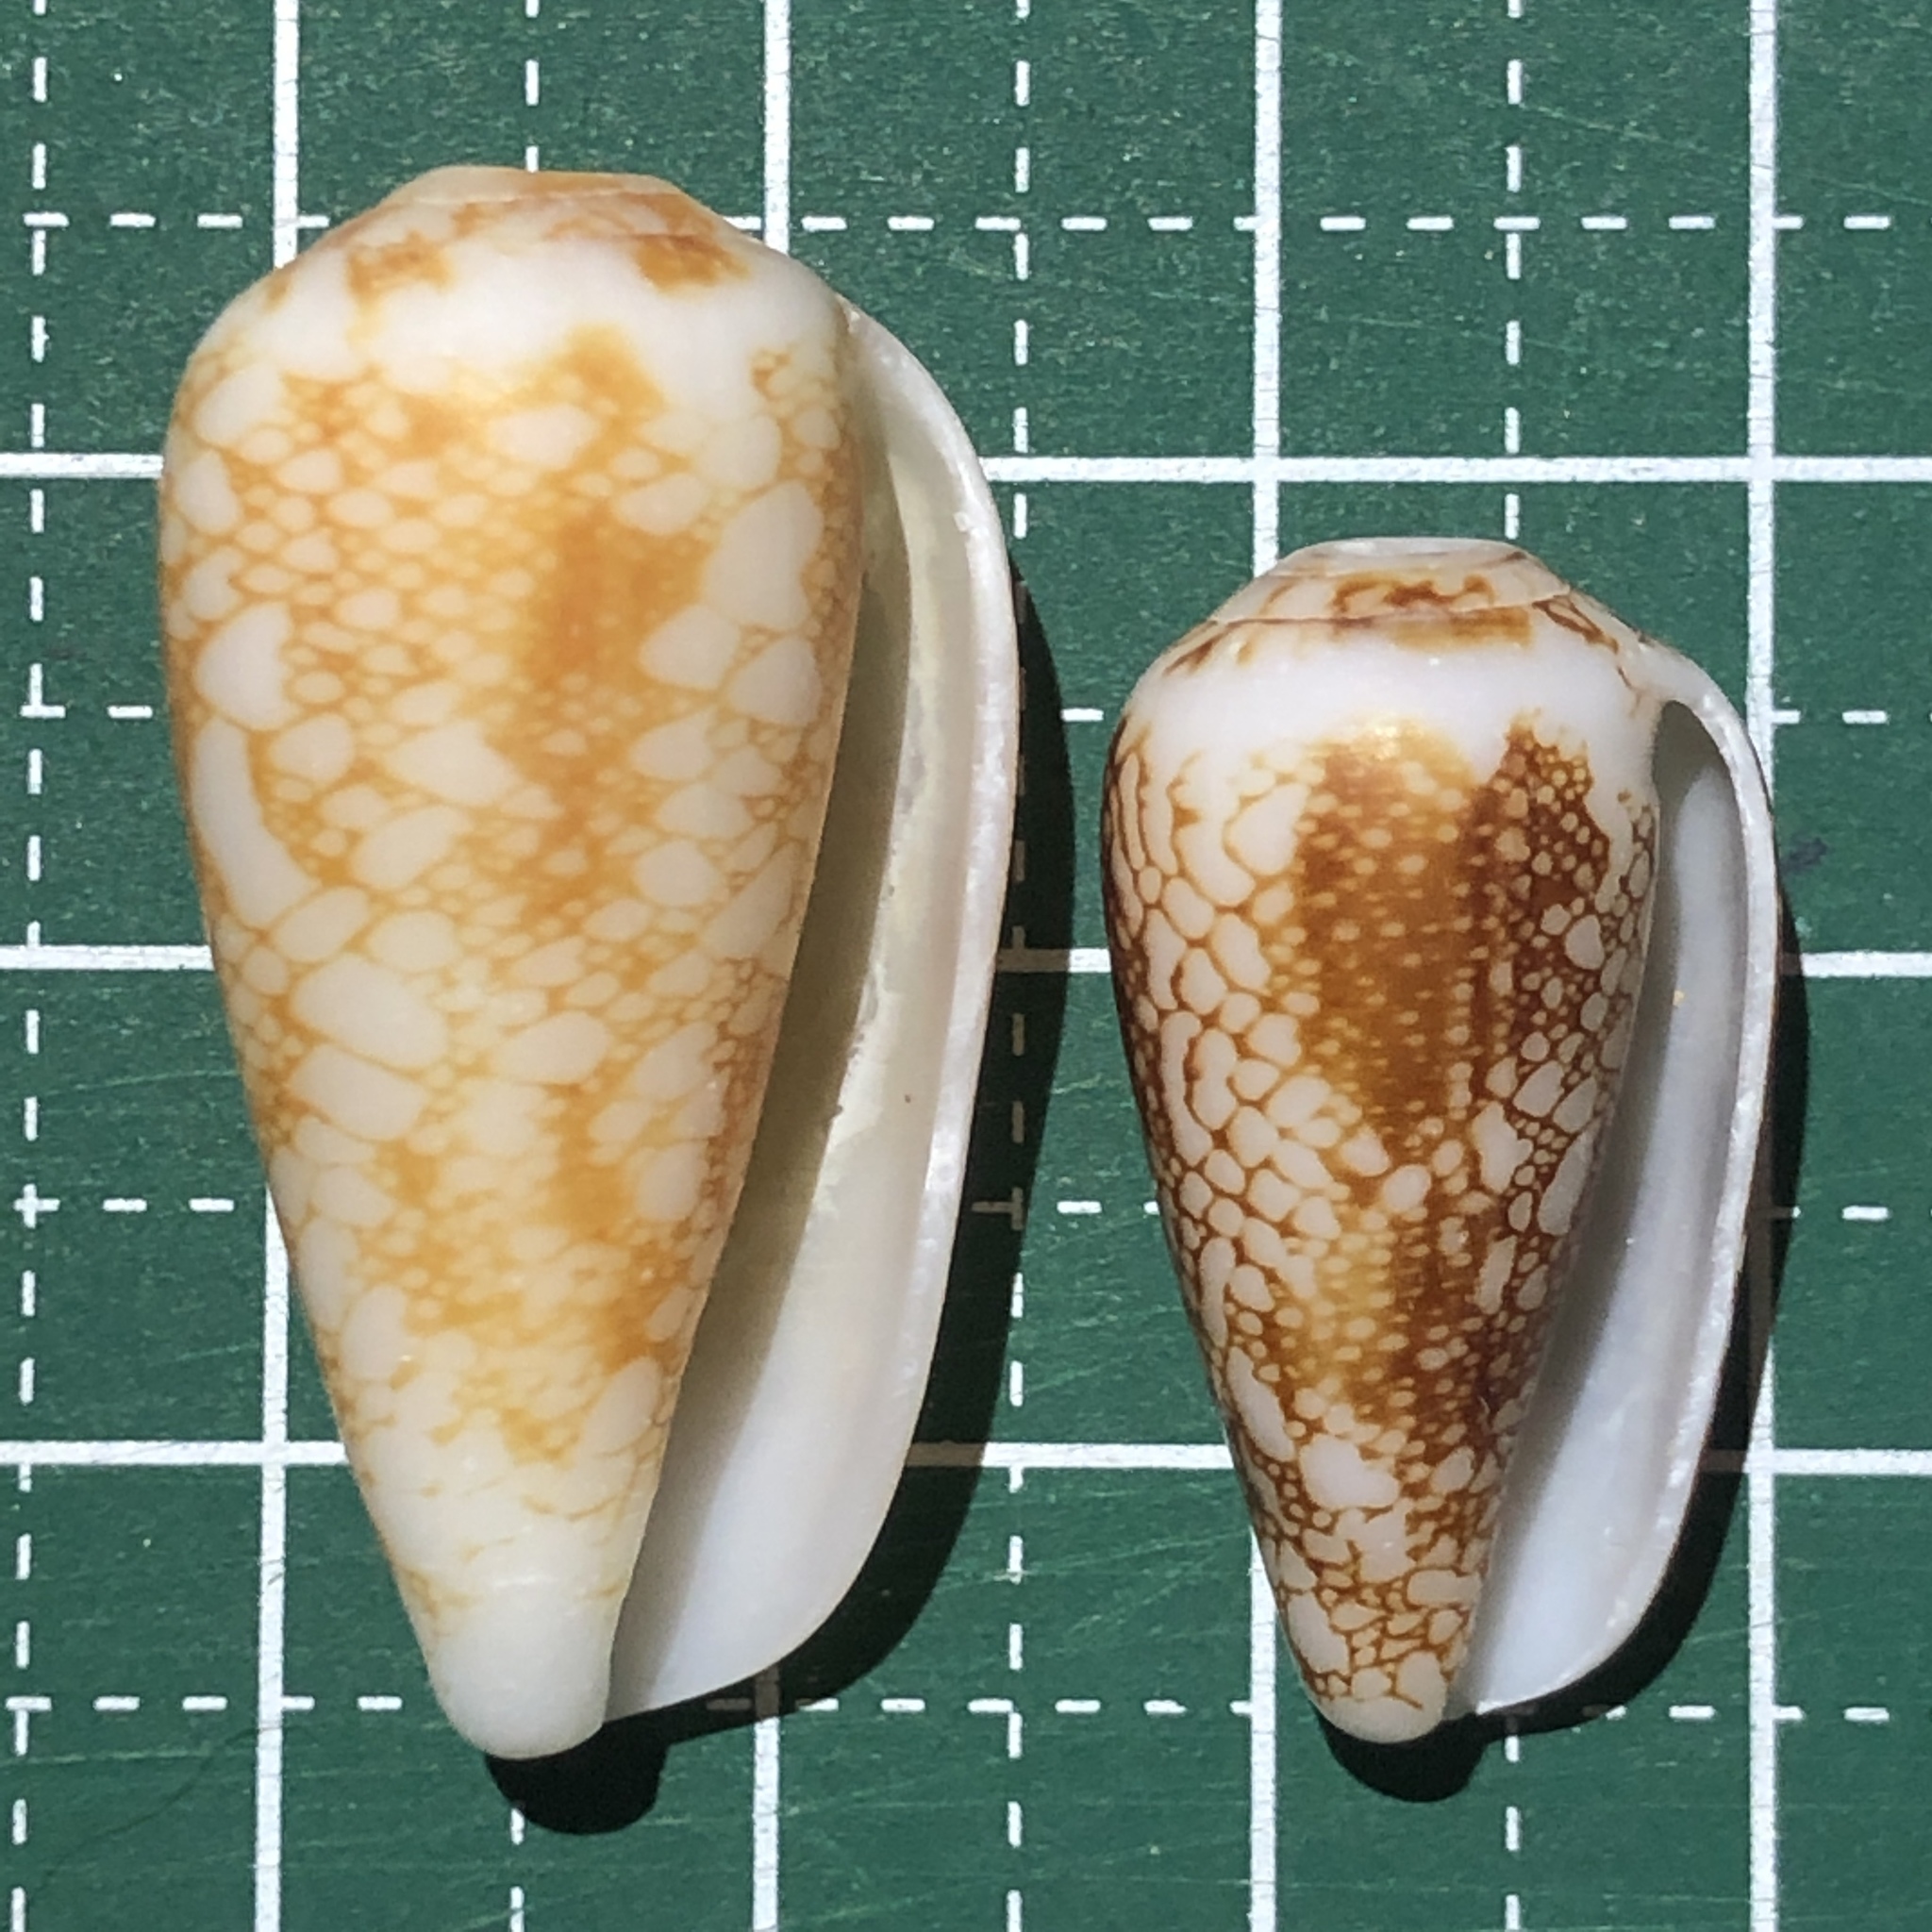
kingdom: Animalia
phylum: Mollusca
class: Gastropoda
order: Neogastropoda
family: Conidae
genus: Conus
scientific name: Conus omaria
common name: Omaria cone
